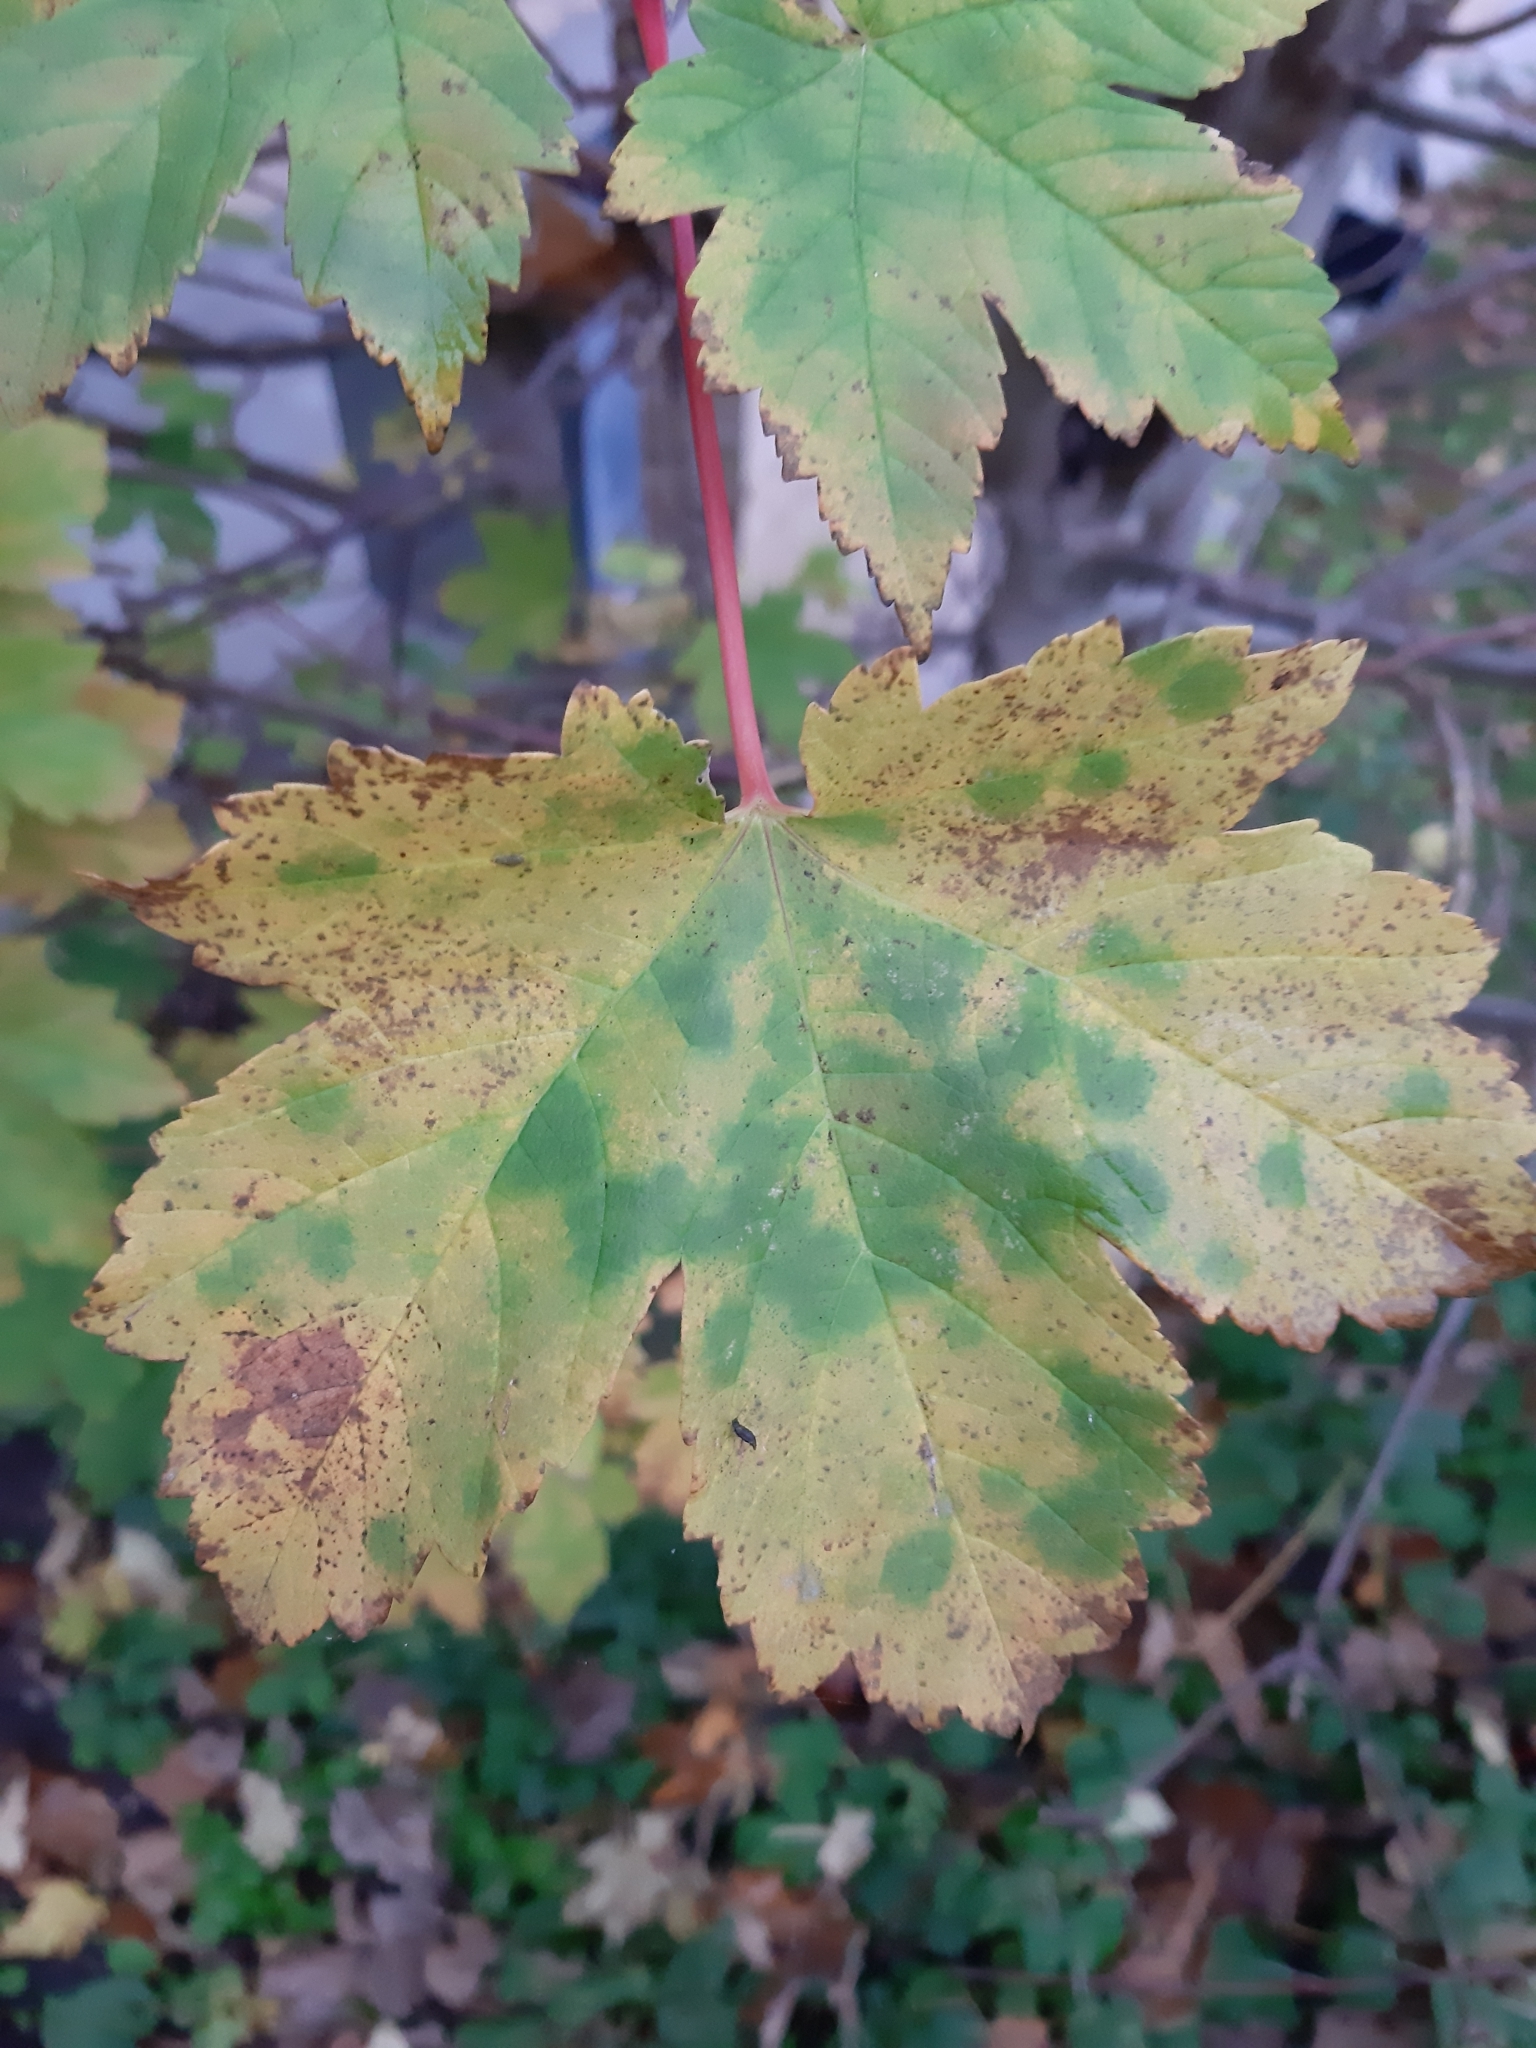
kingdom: Plantae
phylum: Tracheophyta
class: Magnoliopsida
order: Sapindales
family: Sapindaceae
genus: Acer
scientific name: Acer pseudoplatanus
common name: Sycamore
